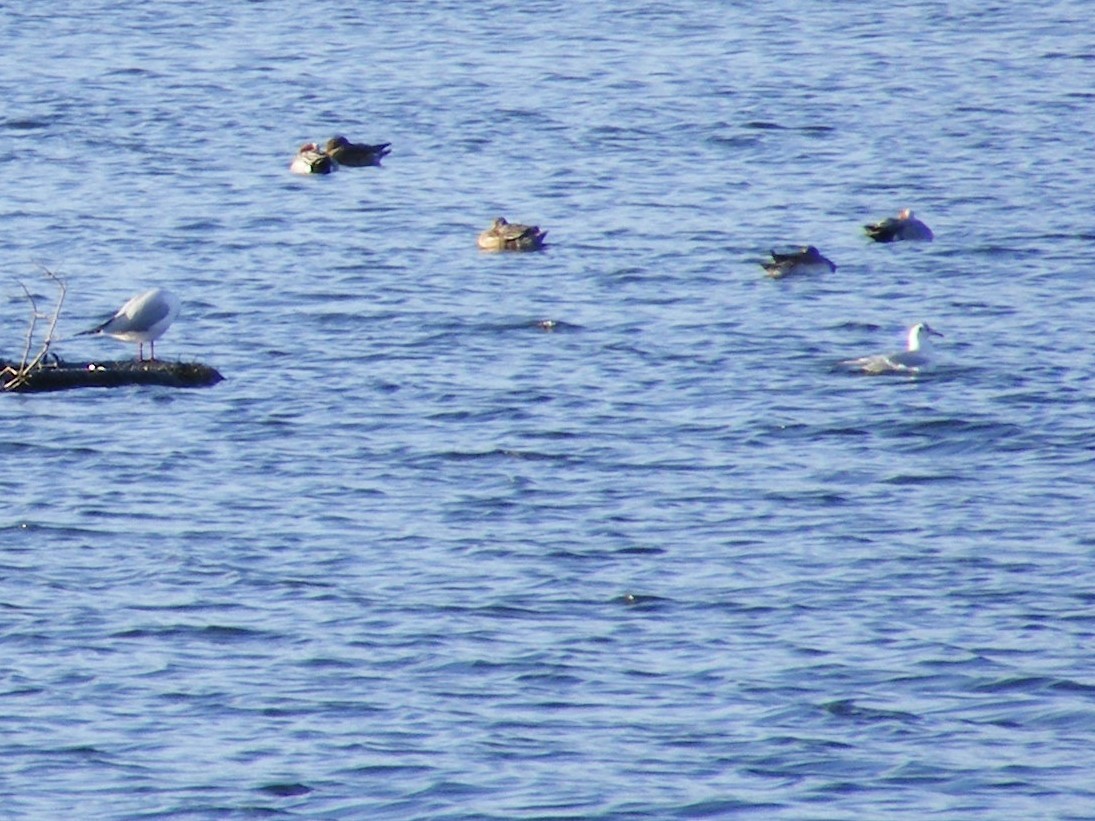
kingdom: Animalia
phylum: Chordata
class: Aves
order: Charadriiformes
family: Laridae
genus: Chroicocephalus
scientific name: Chroicocephalus ridibundus
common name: Black-headed gull
